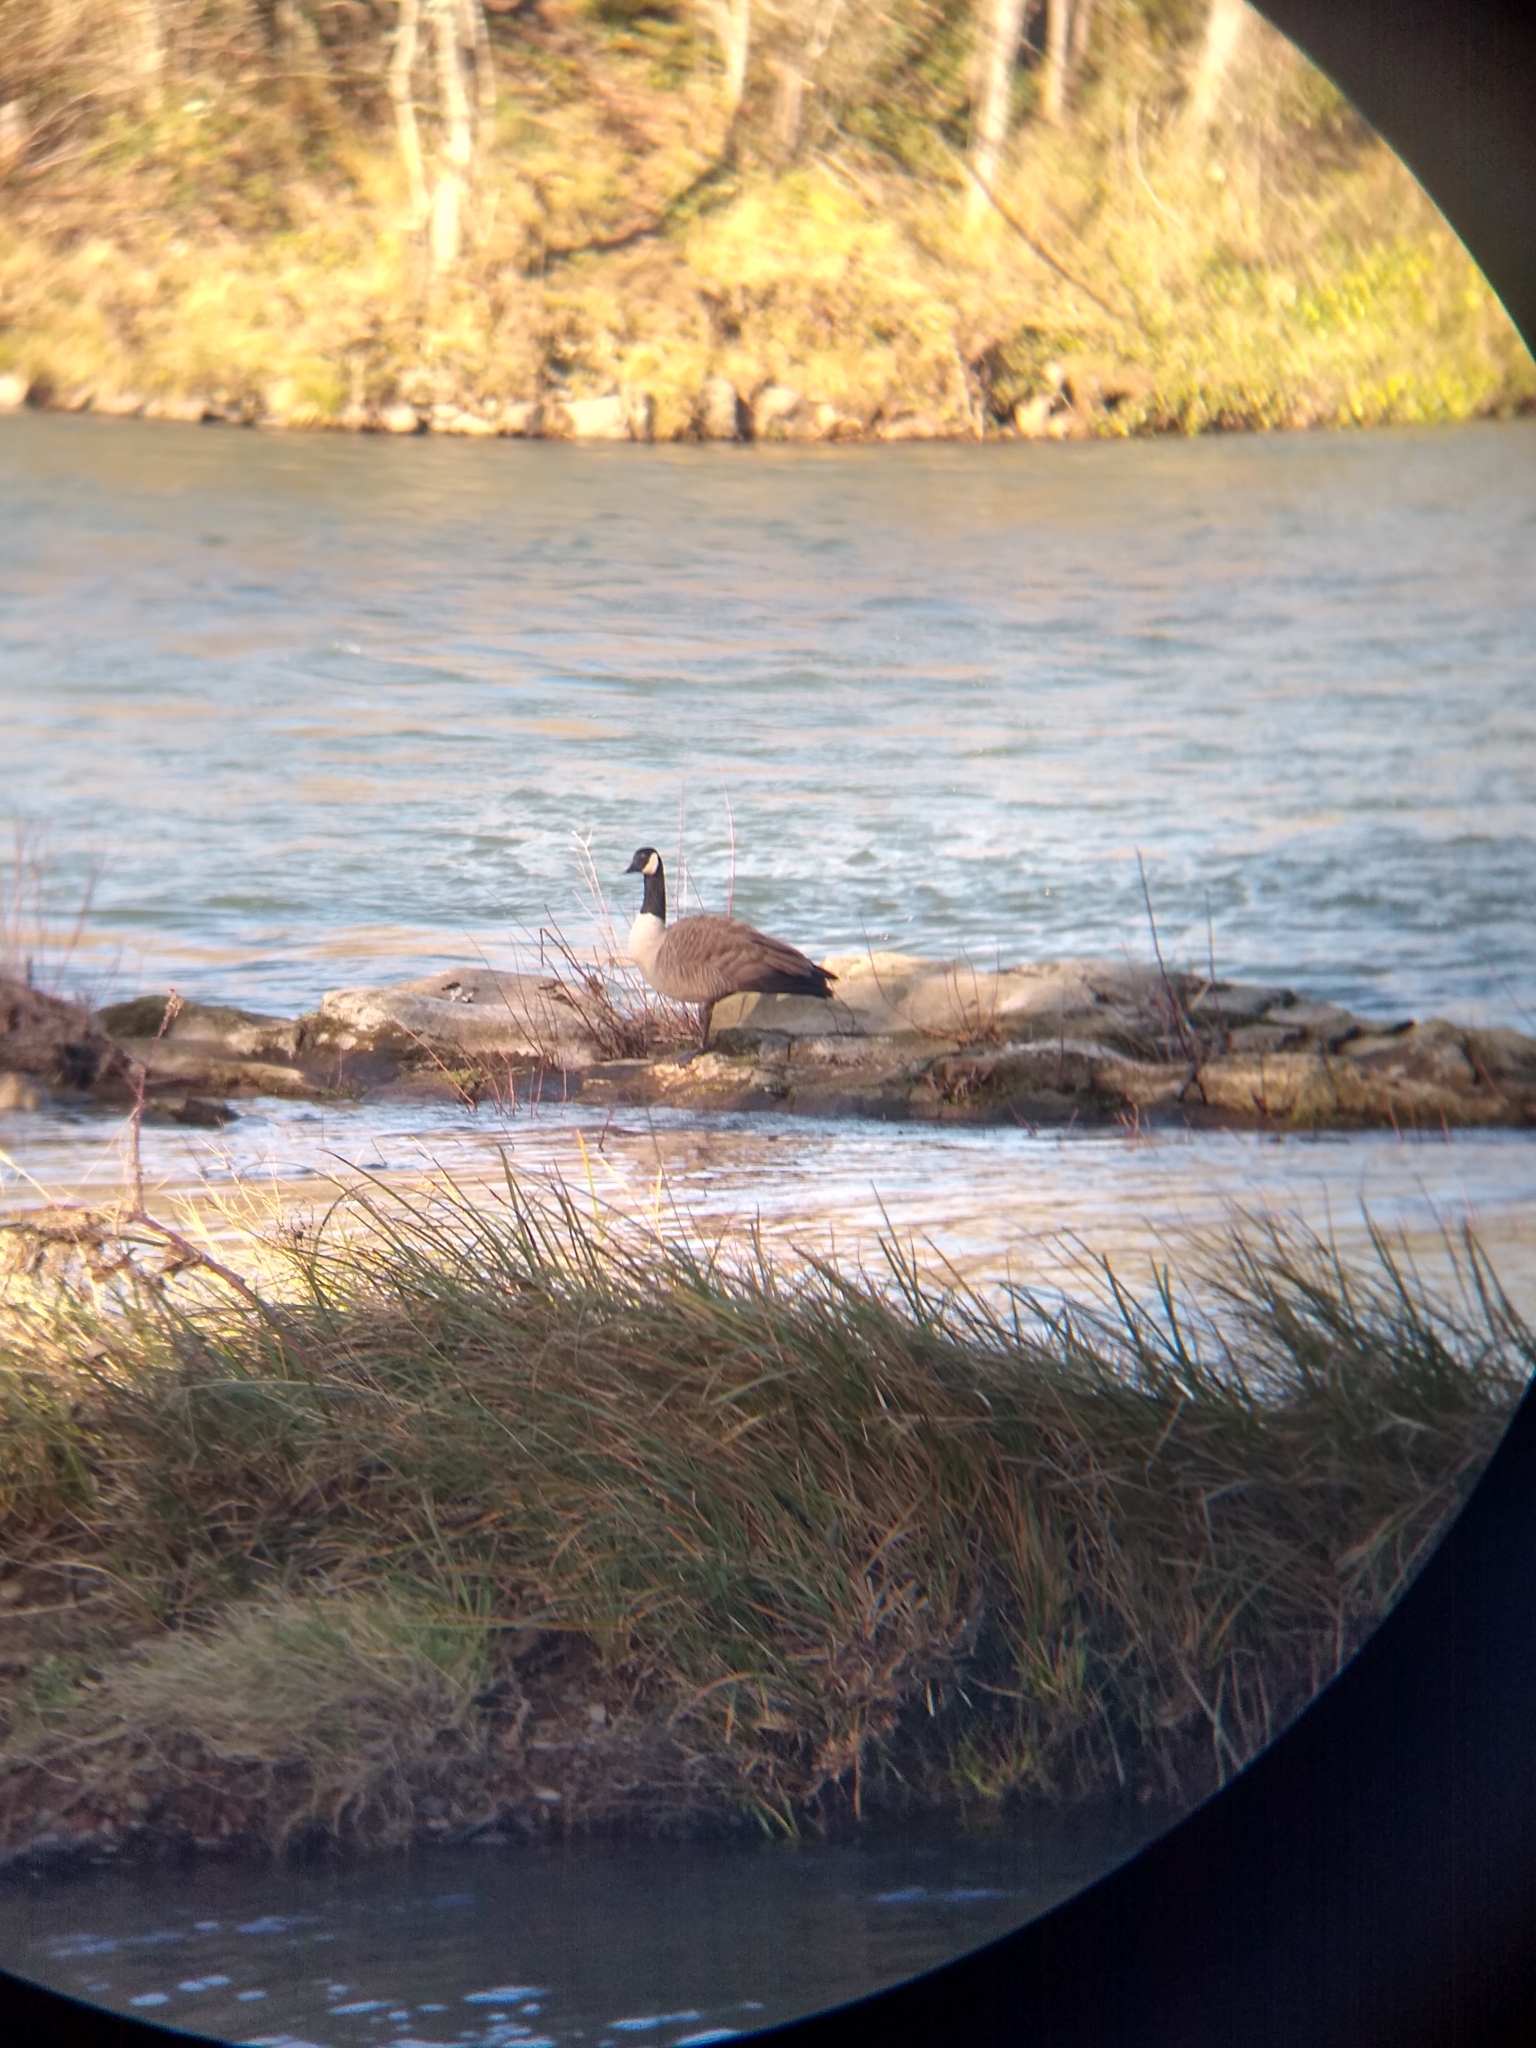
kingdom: Animalia
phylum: Chordata
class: Aves
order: Anseriformes
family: Anatidae
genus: Branta
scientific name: Branta canadensis
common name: Canada goose
